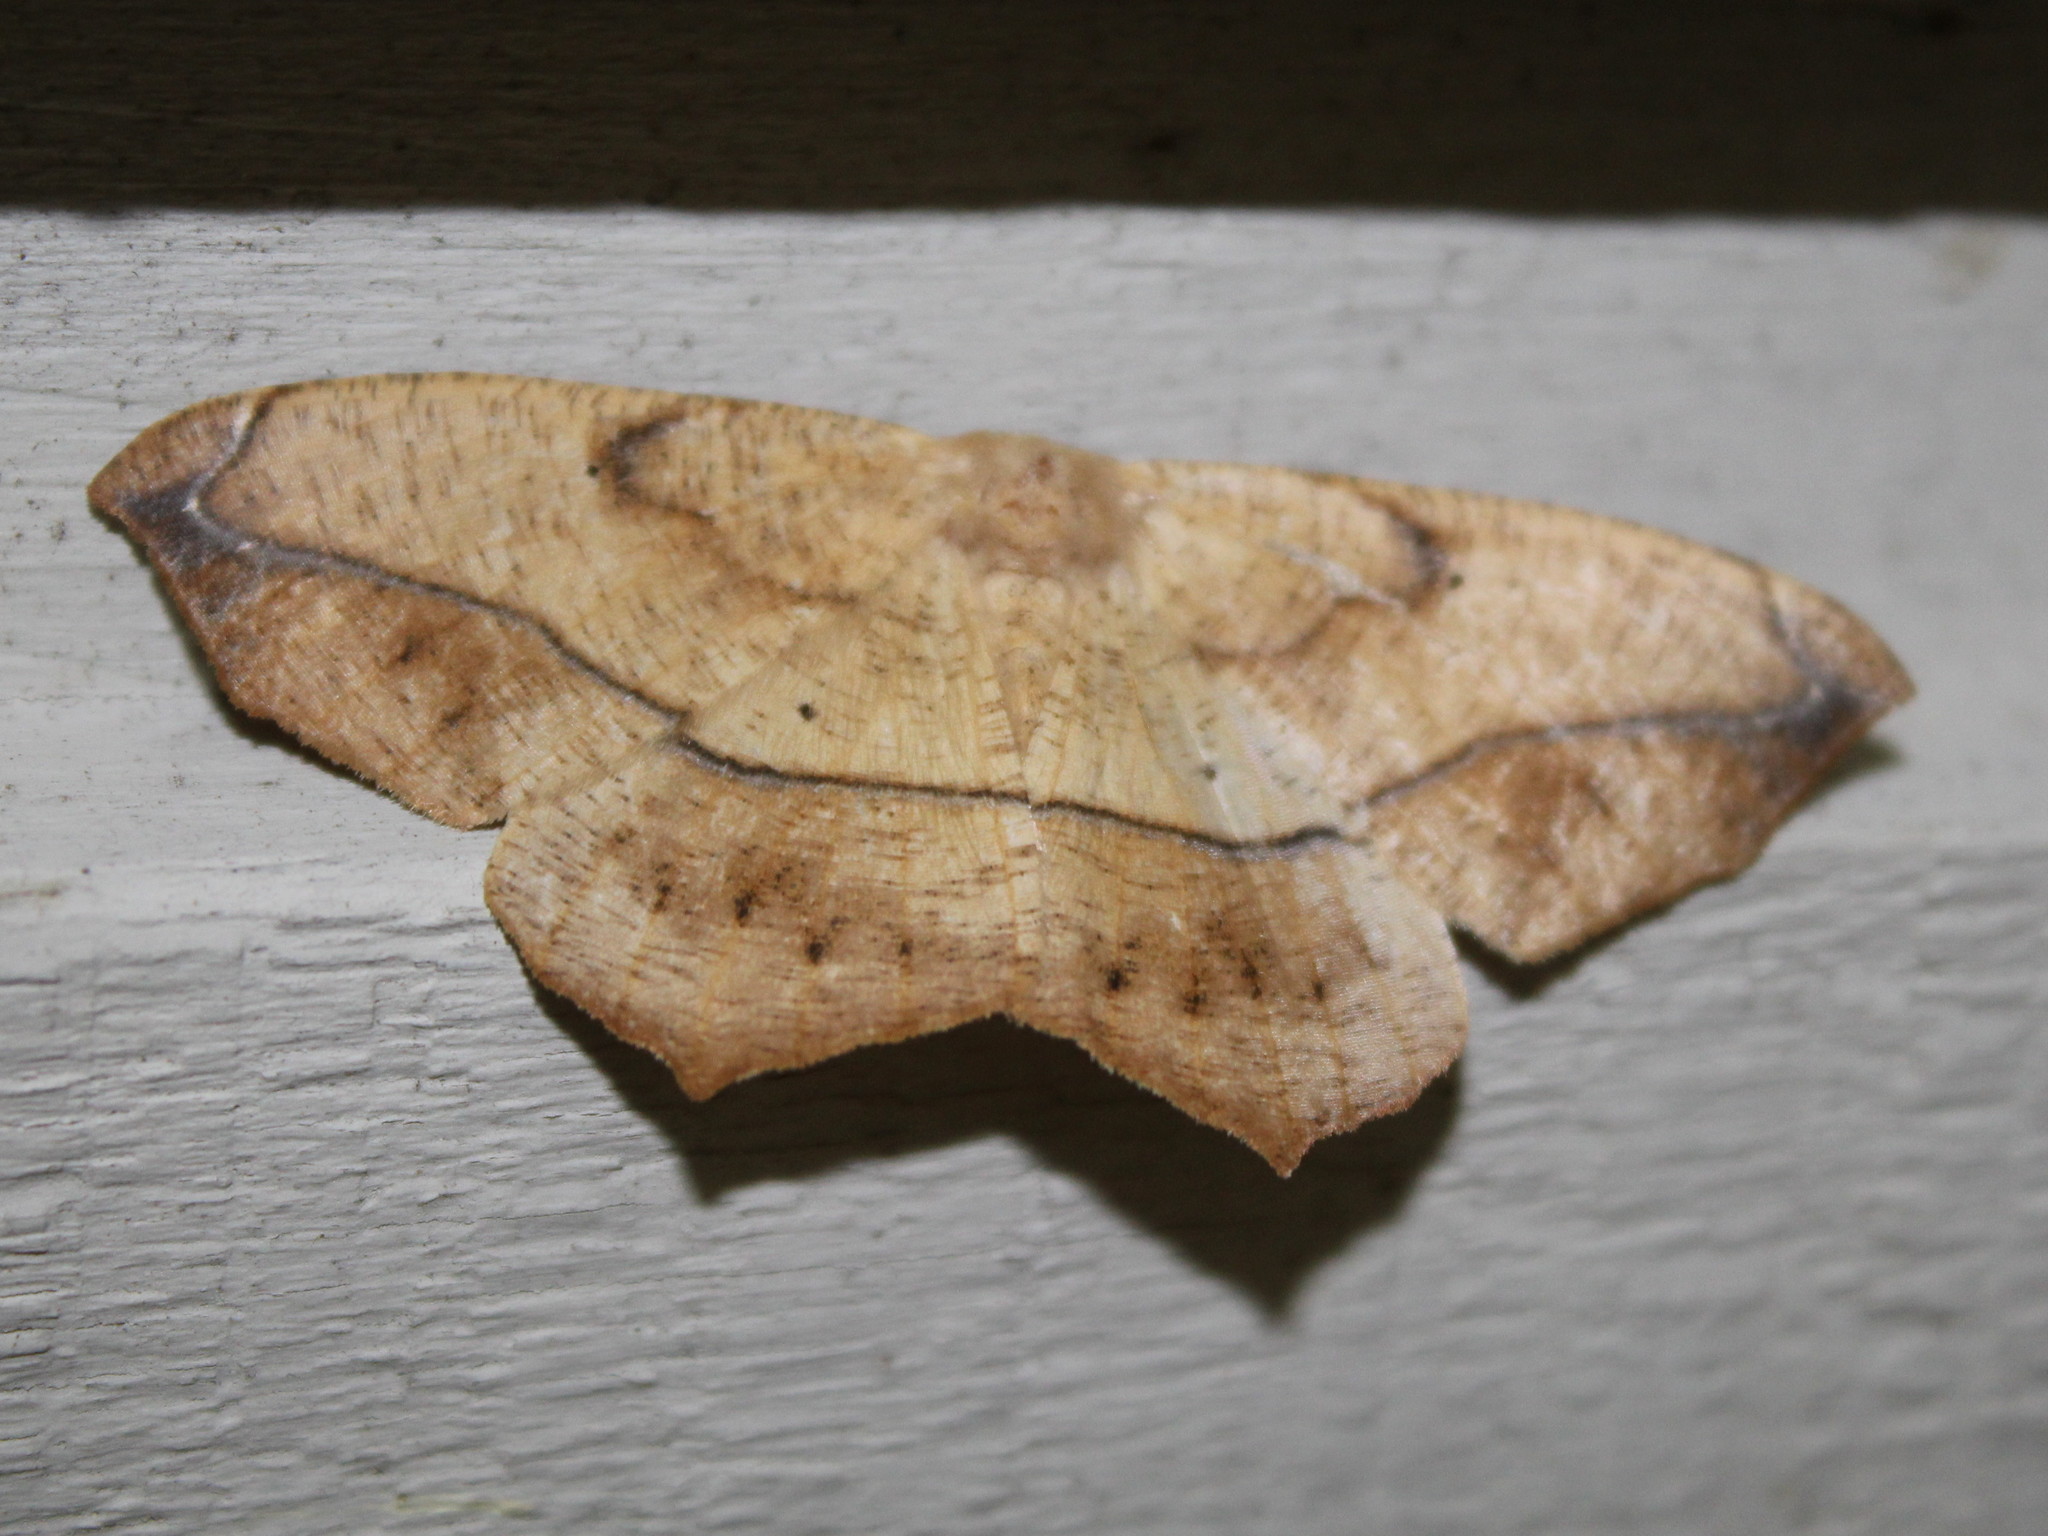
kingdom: Animalia
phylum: Arthropoda
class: Insecta
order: Lepidoptera
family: Geometridae
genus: Prochoerodes
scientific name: Prochoerodes lineola
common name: Large maple spanworm
